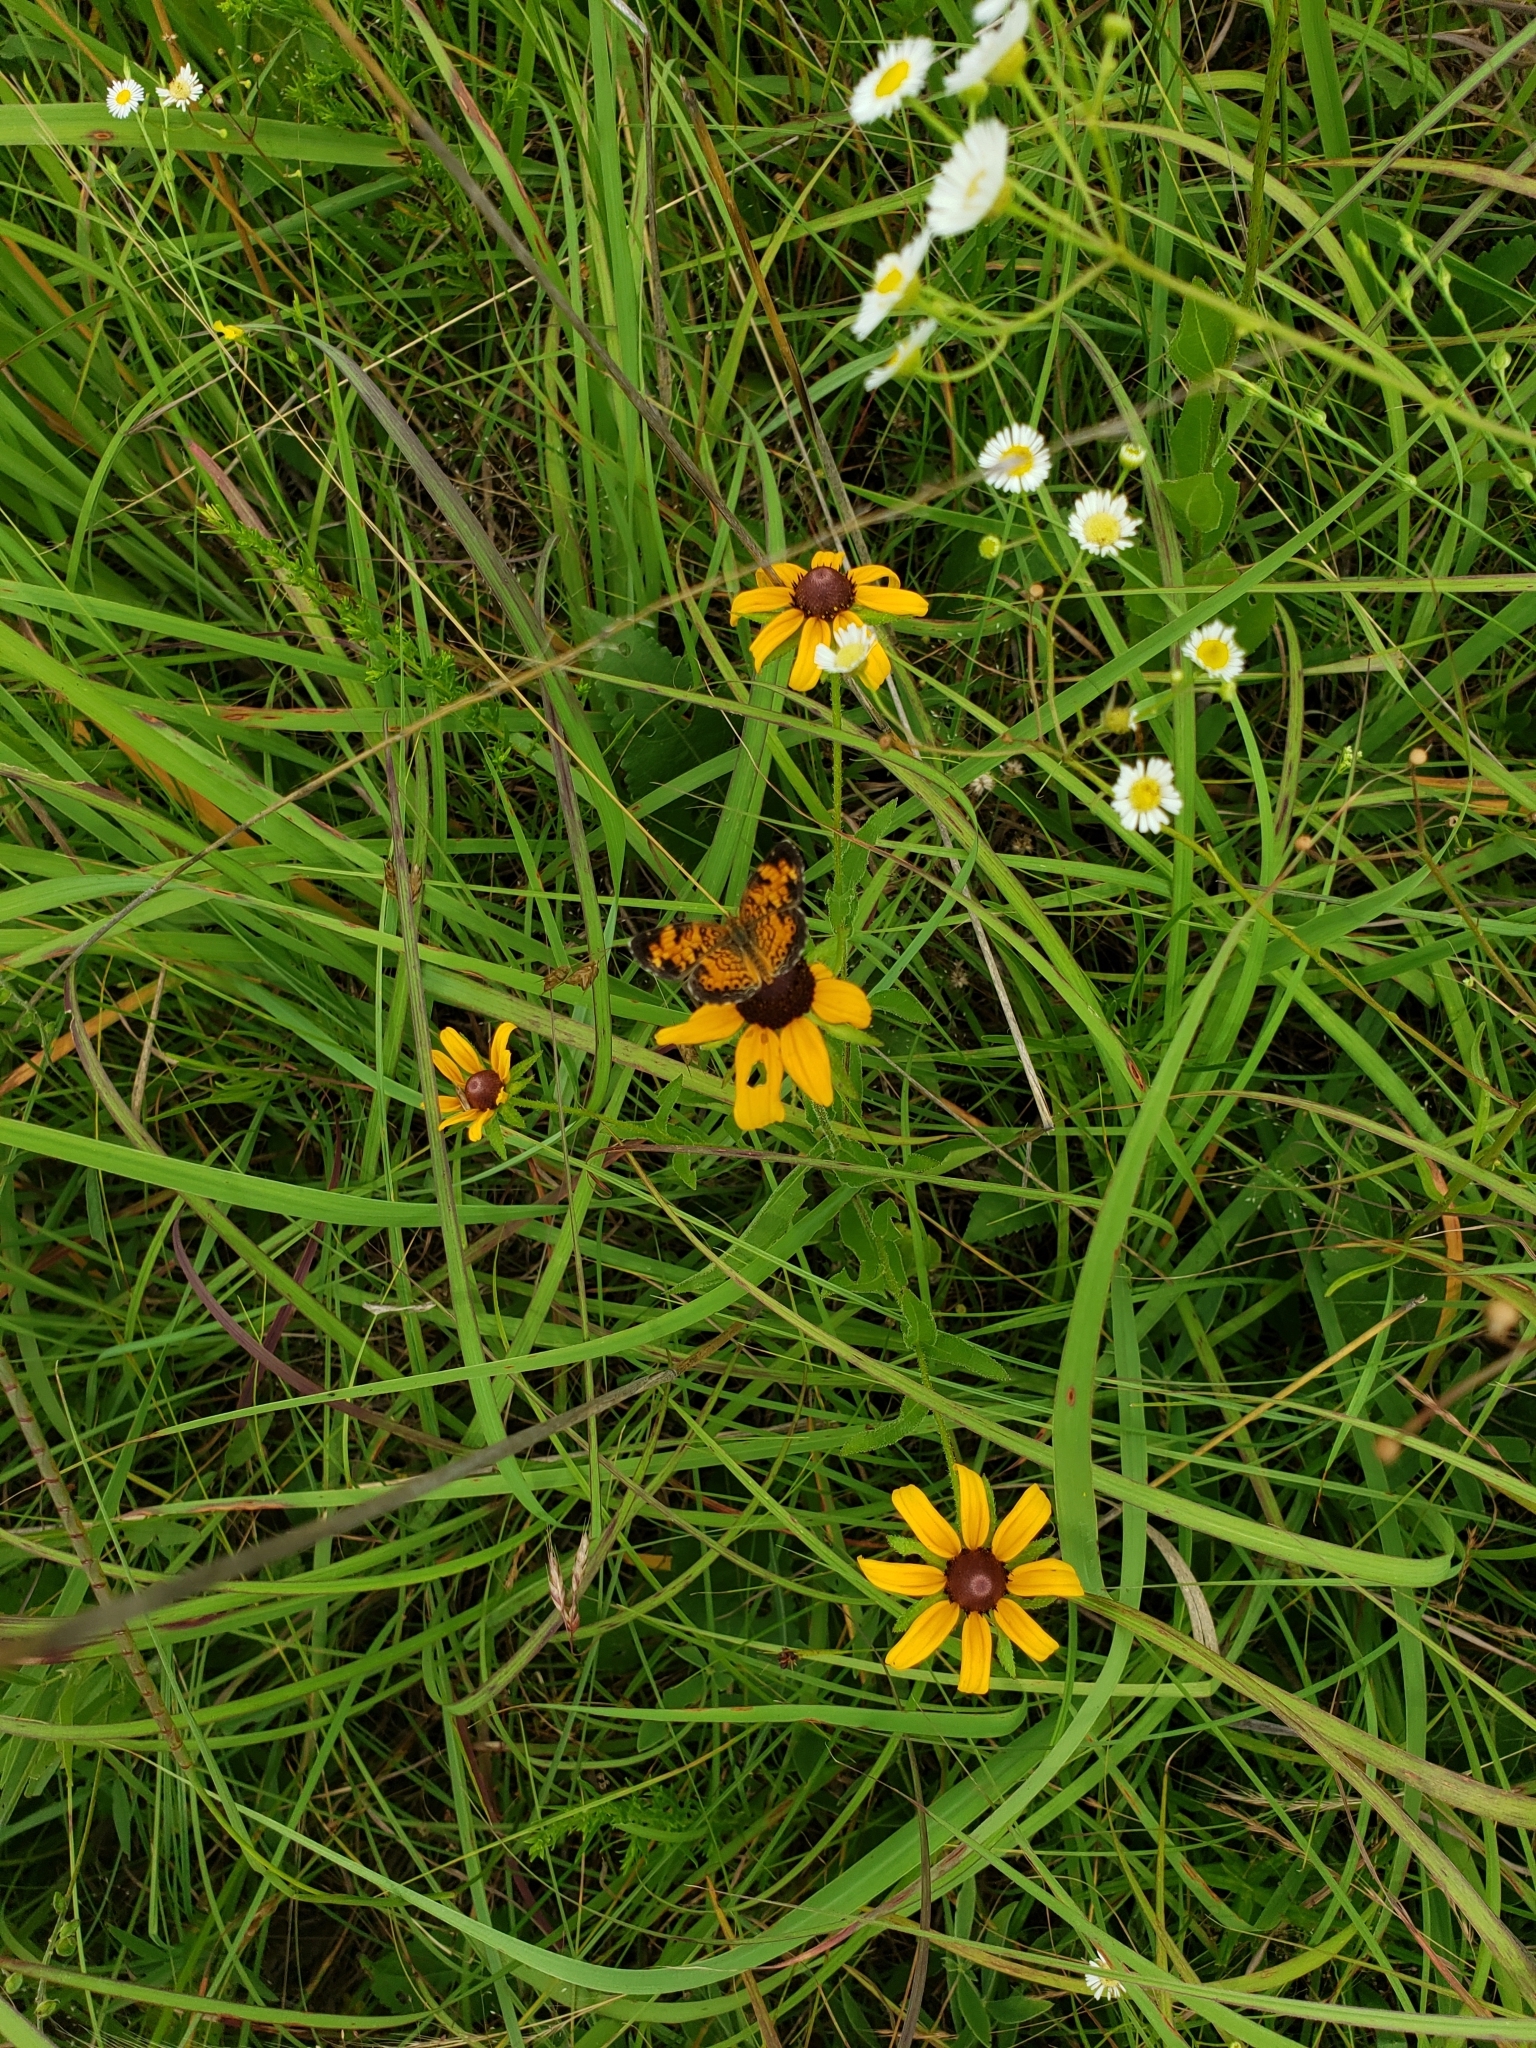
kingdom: Animalia
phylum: Arthropoda
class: Insecta
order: Lepidoptera
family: Nymphalidae
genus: Phyciodes
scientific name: Phyciodes tharos
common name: Pearl crescent
